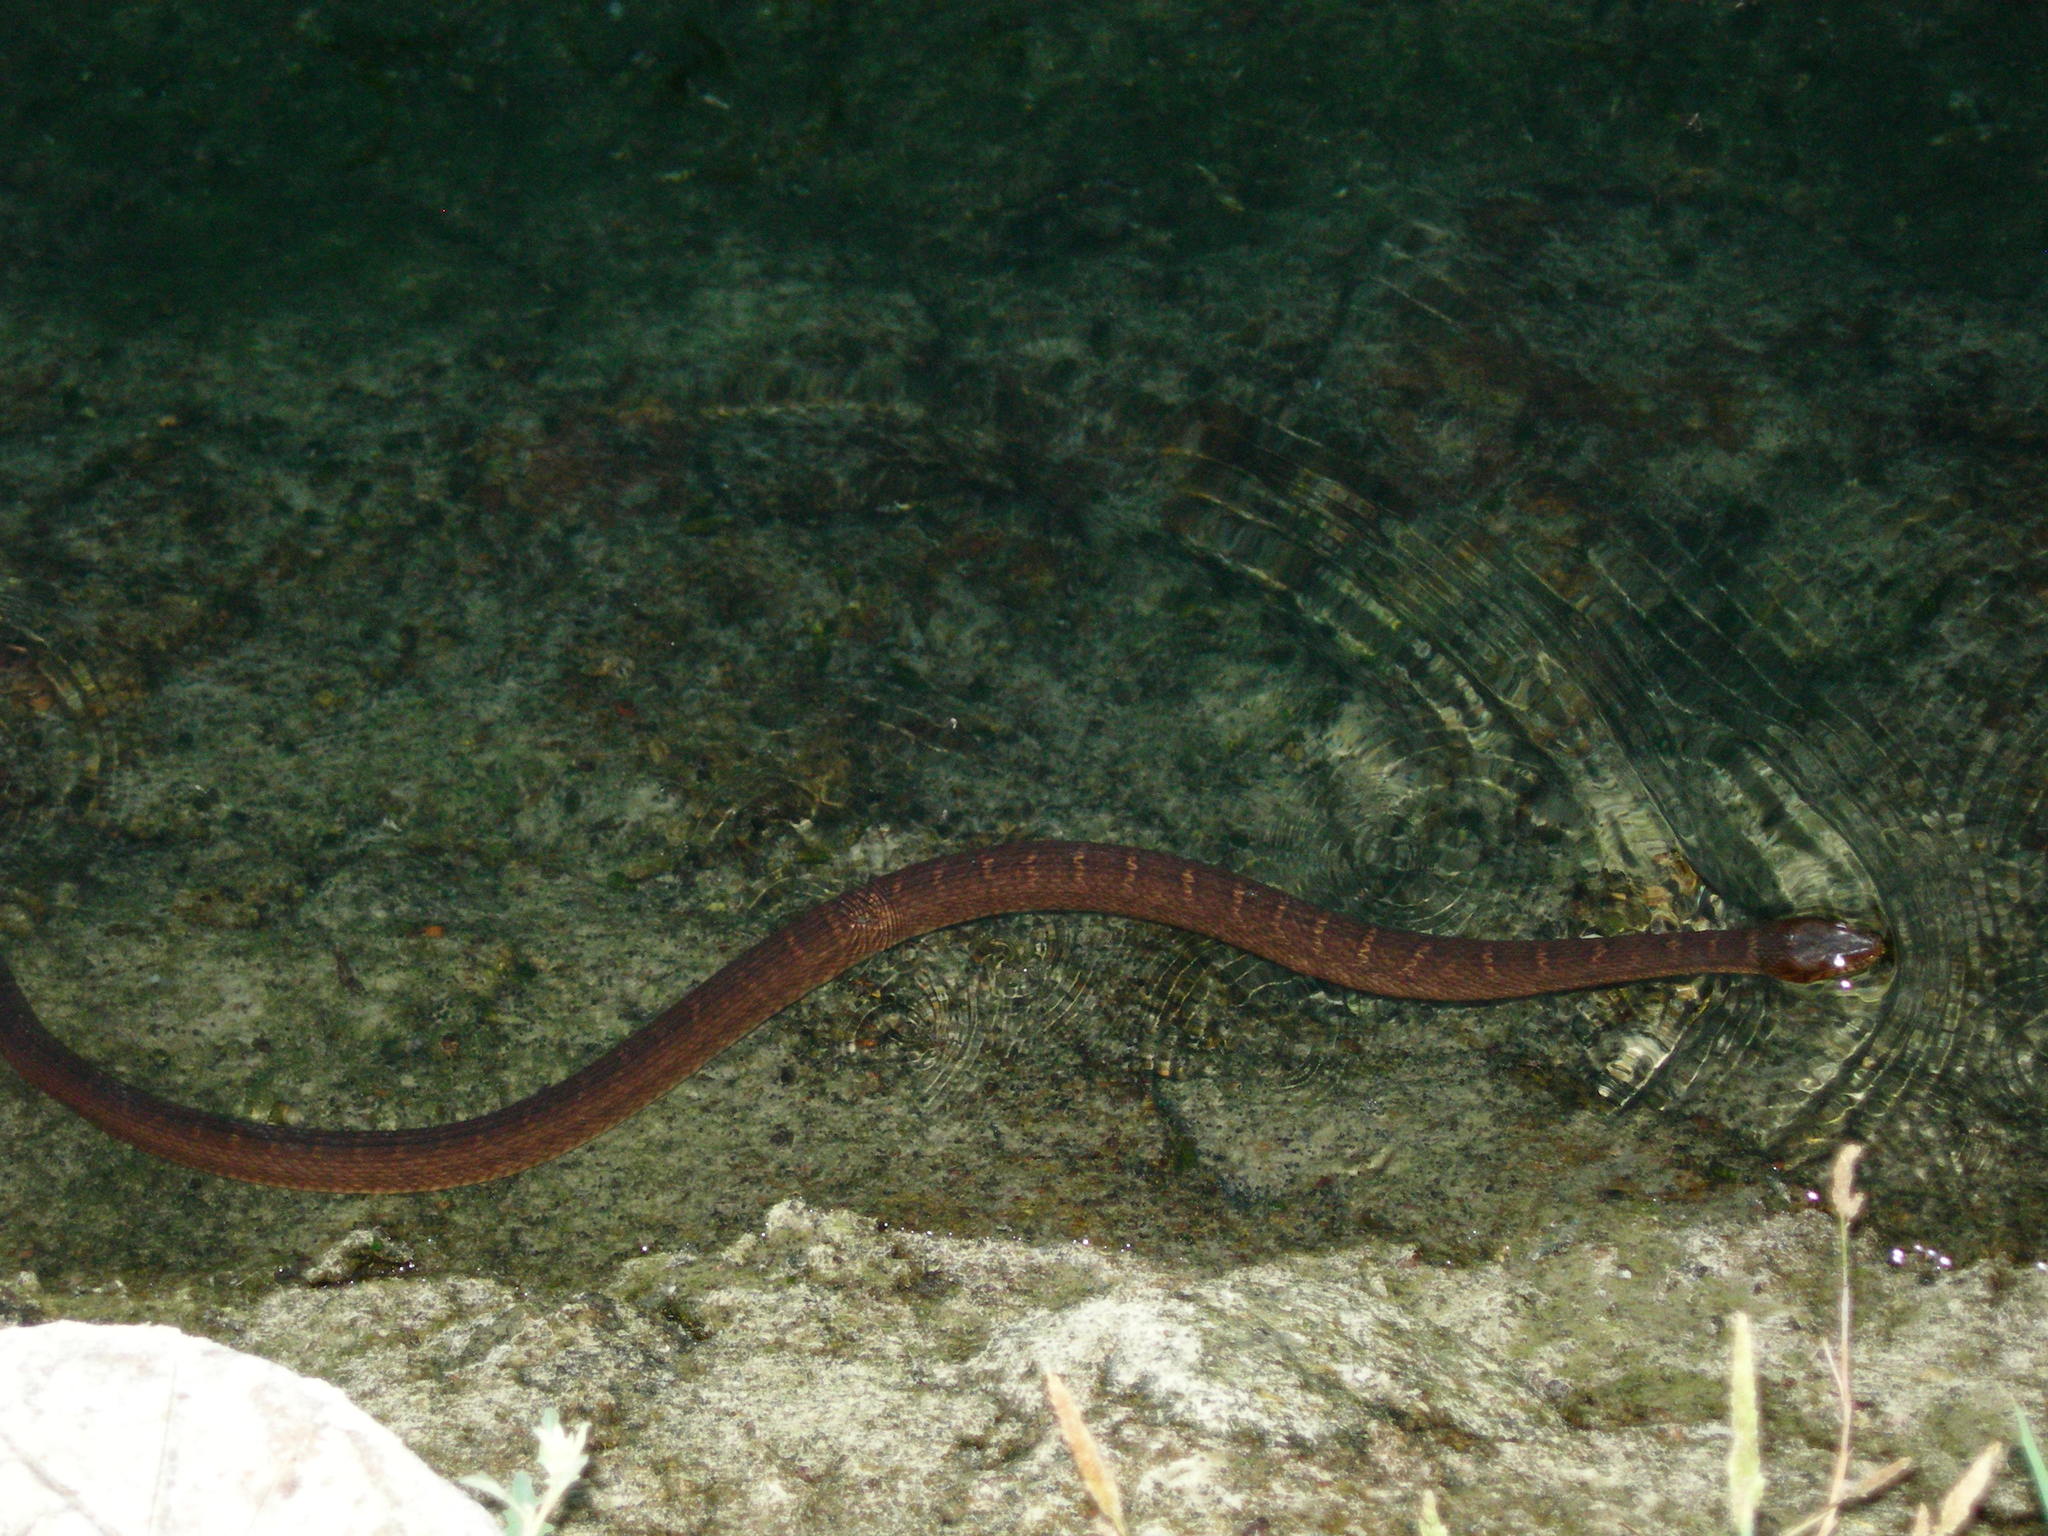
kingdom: Animalia
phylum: Chordata
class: Squamata
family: Colubridae
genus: Nerodia
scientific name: Nerodia erythrogaster
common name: Plainbelly water snake
